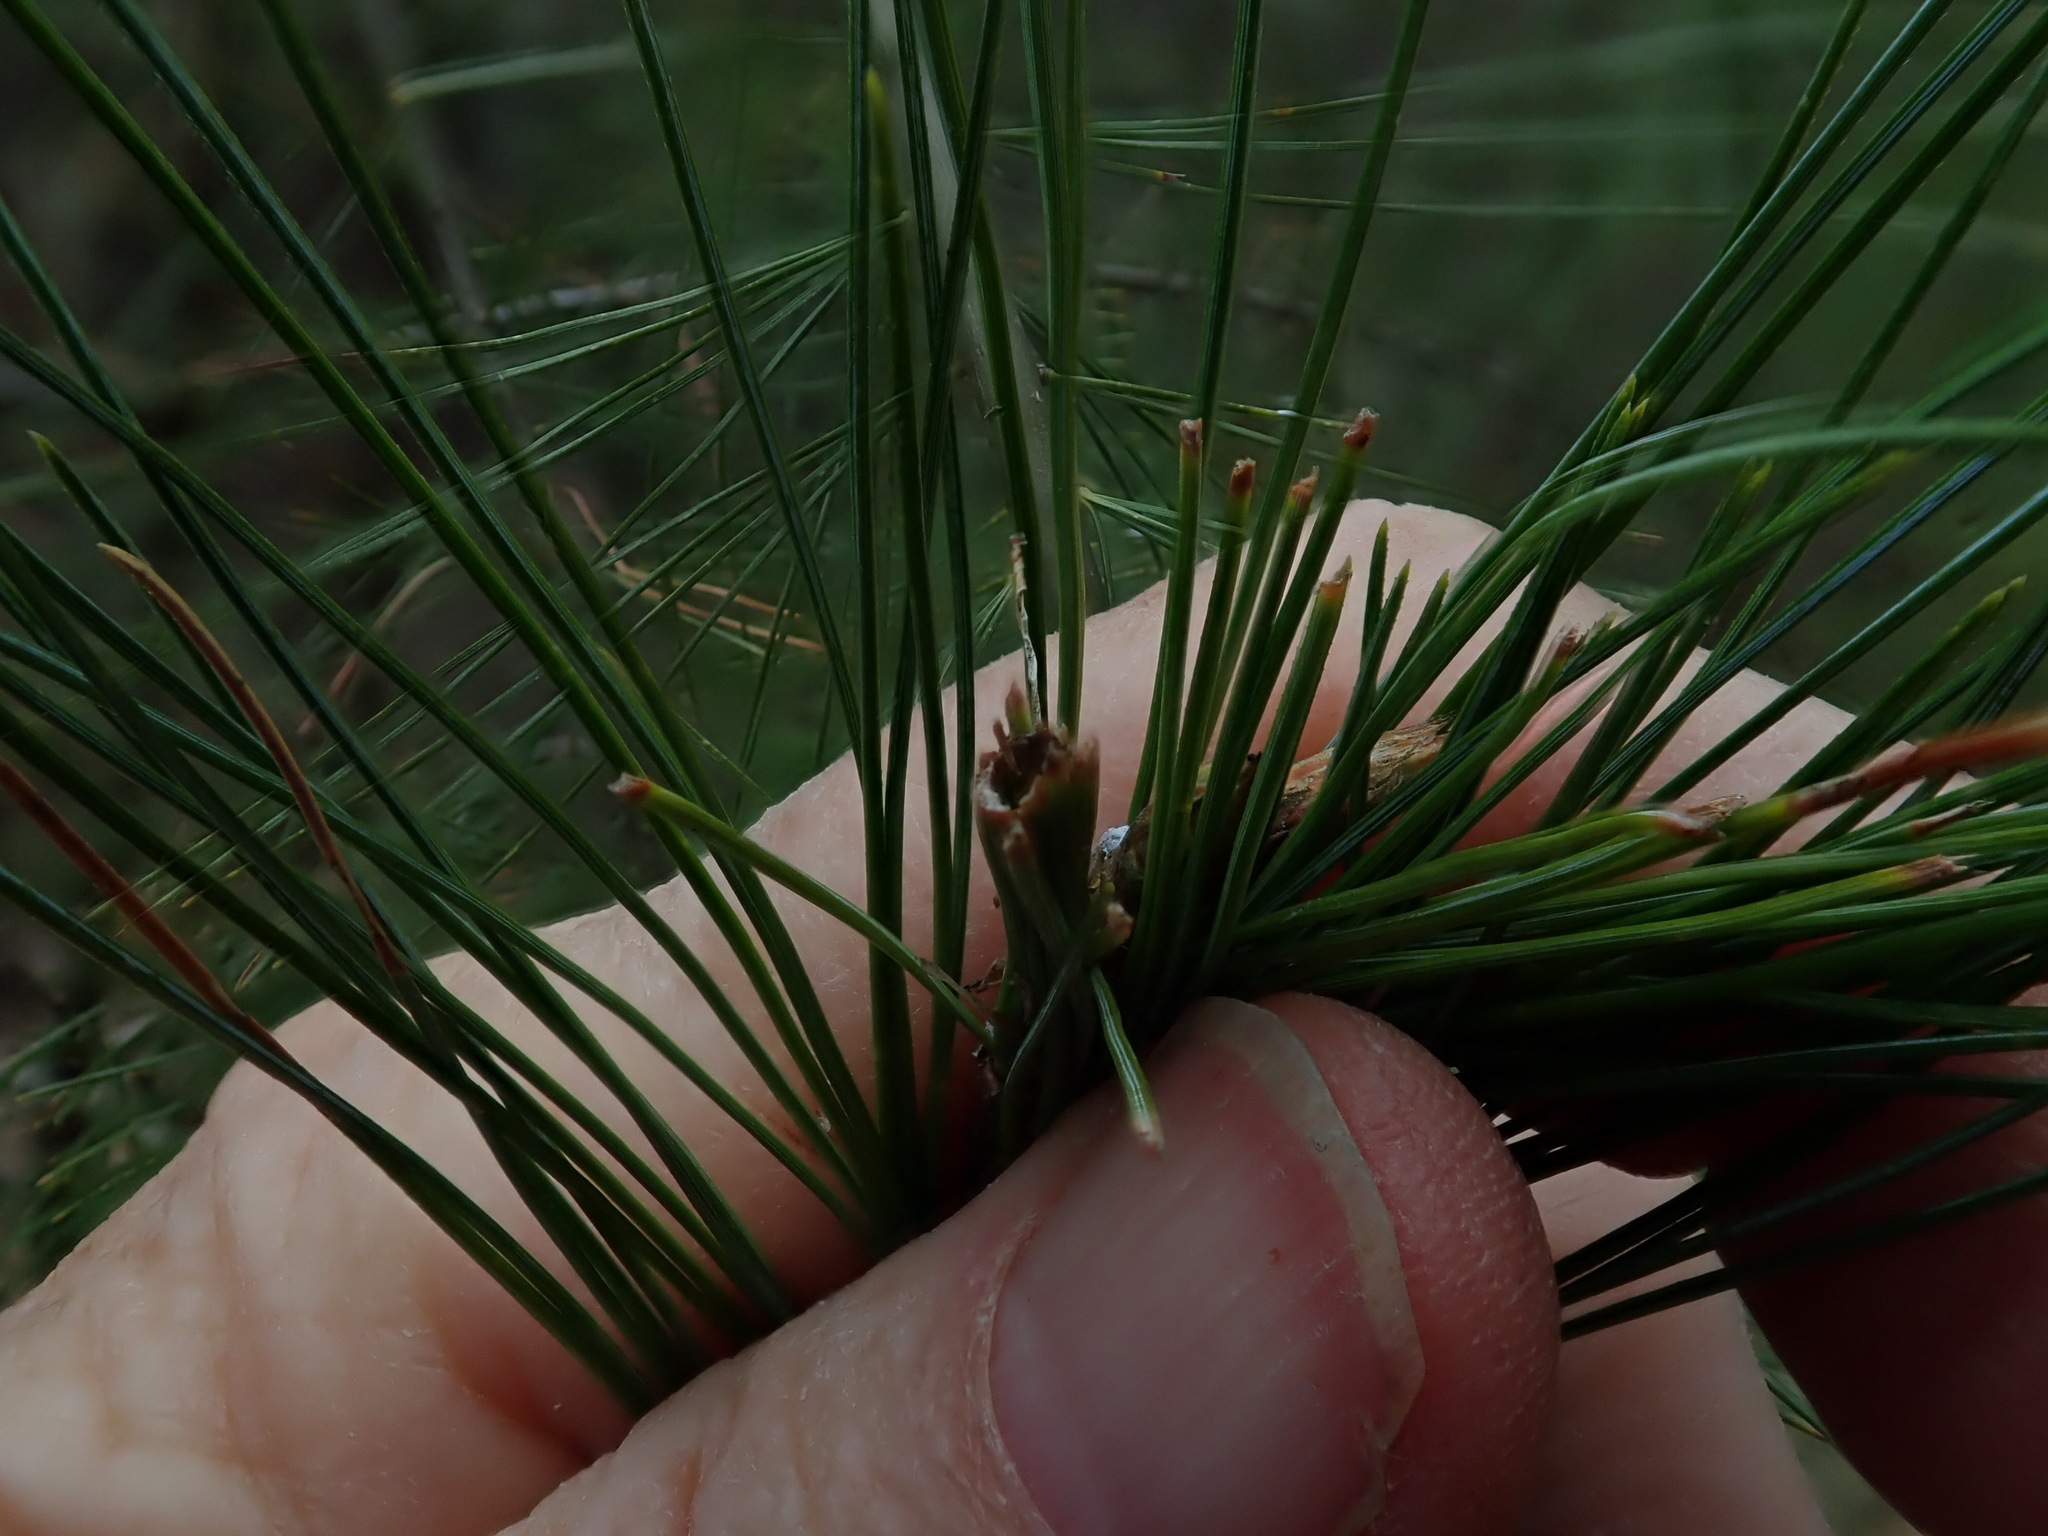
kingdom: Animalia
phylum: Arthropoda
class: Insecta
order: Lepidoptera
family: Tortricidae
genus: Argyrotaenia
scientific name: Argyrotaenia pinatubana
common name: Pine tube moth
